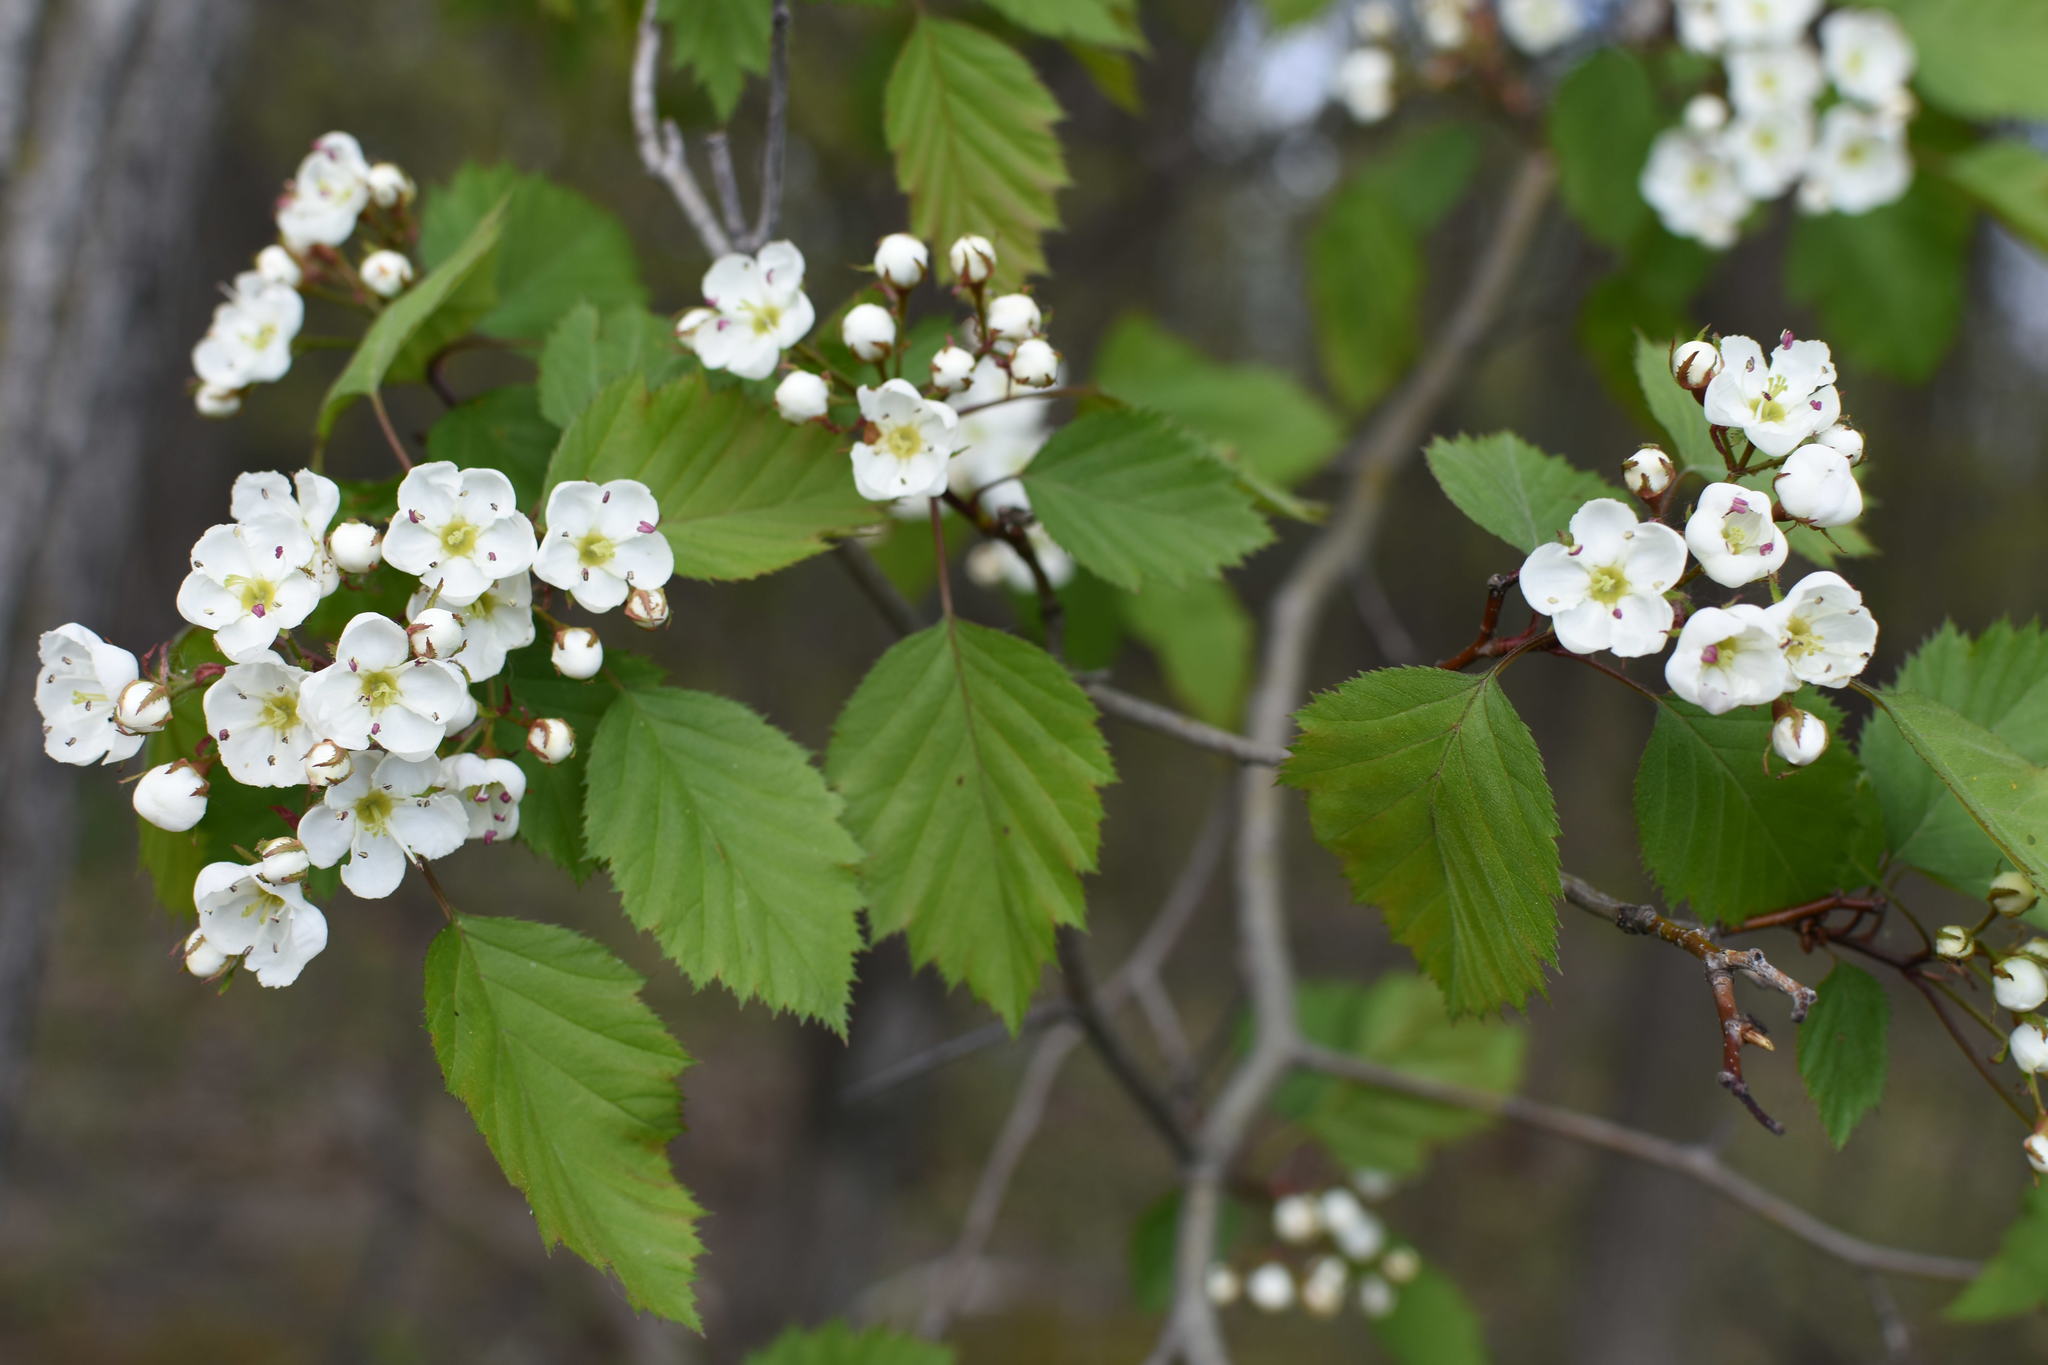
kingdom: Plantae
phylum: Tracheophyta
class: Magnoliopsida
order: Rosales
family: Rosaceae
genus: Crataegus
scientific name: Crataegus holmesiana
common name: Holmes' hawthorn
